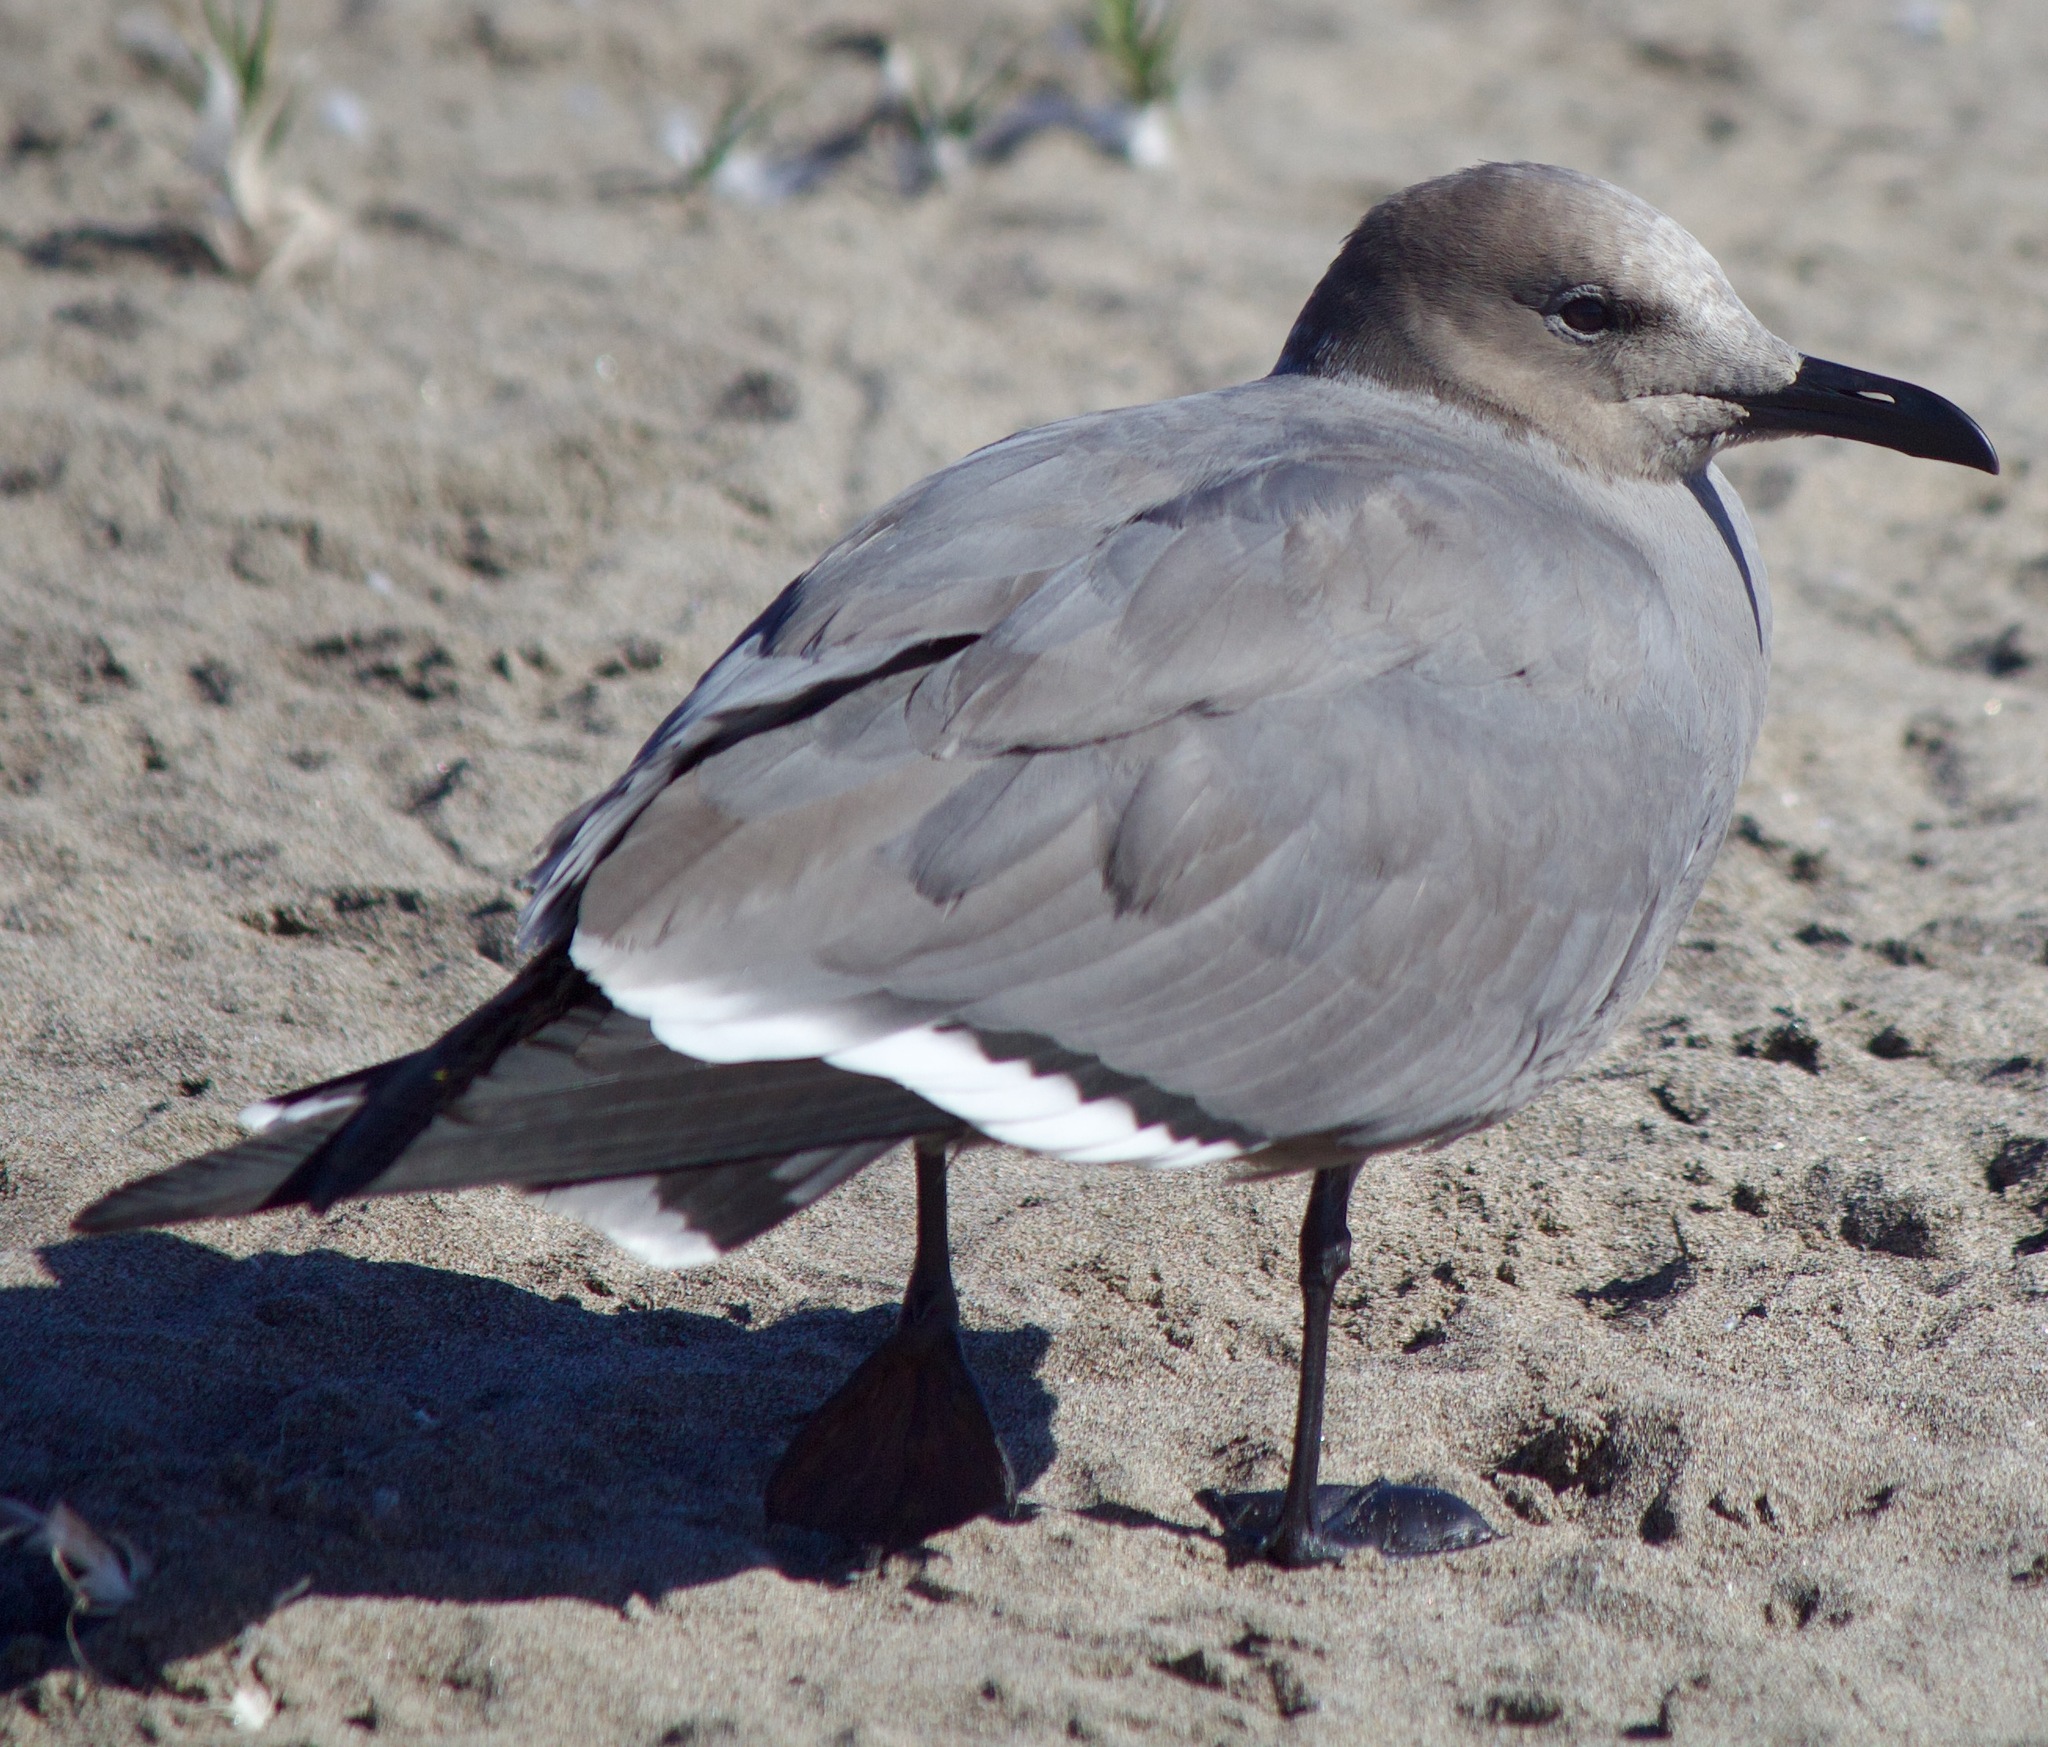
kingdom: Animalia
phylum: Chordata
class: Aves
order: Charadriiformes
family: Laridae
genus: Leucophaeus
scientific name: Leucophaeus modestus
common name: Gray gull
